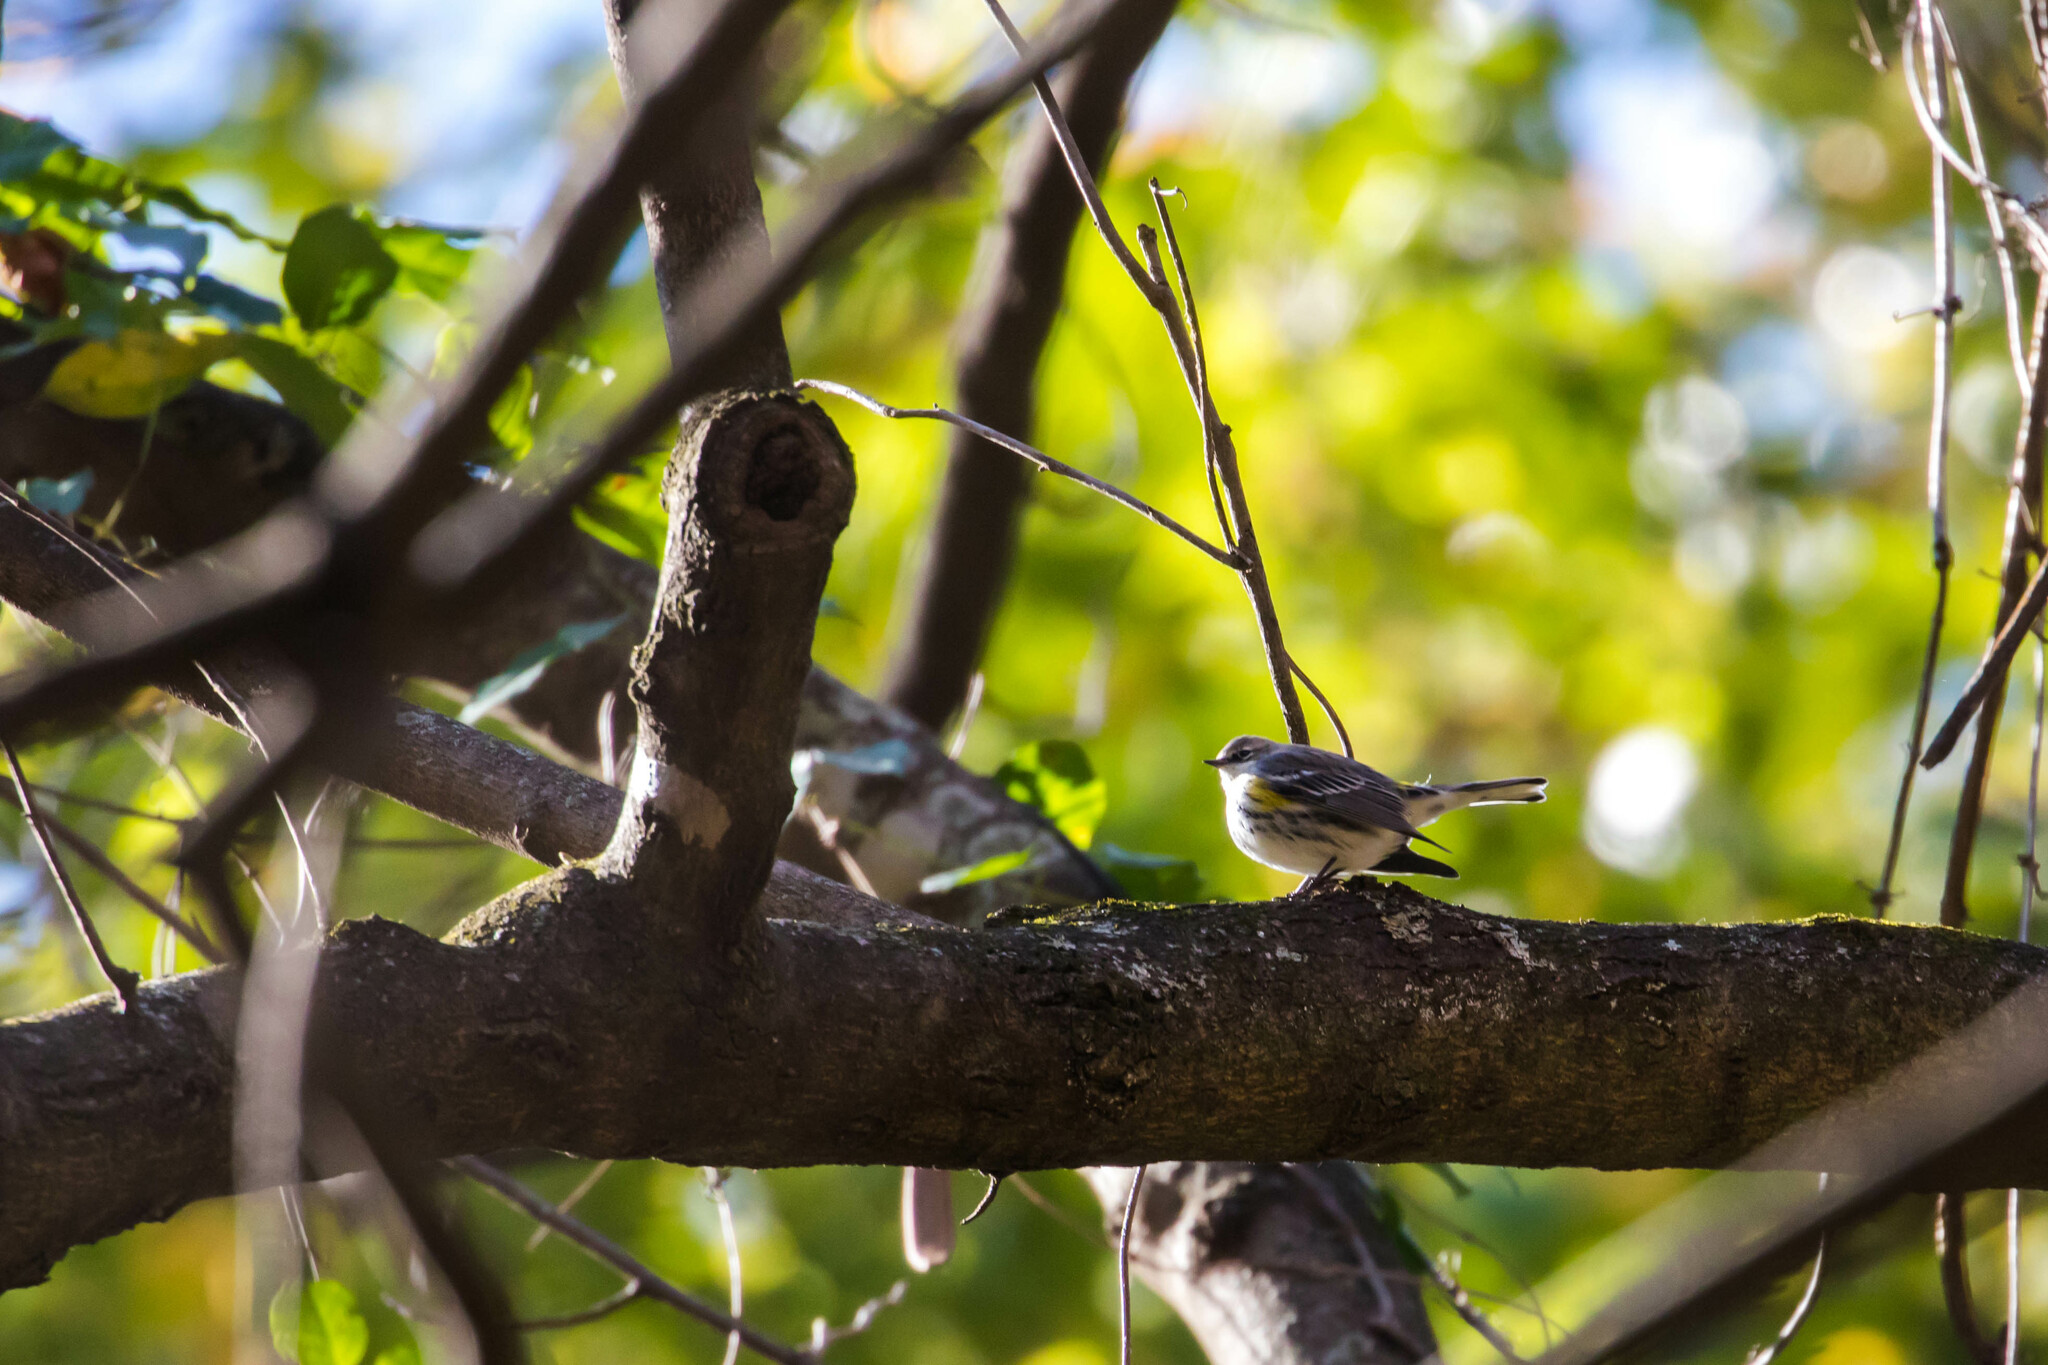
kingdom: Animalia
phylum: Chordata
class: Aves
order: Passeriformes
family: Parulidae
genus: Setophaga
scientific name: Setophaga coronata
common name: Myrtle warbler
